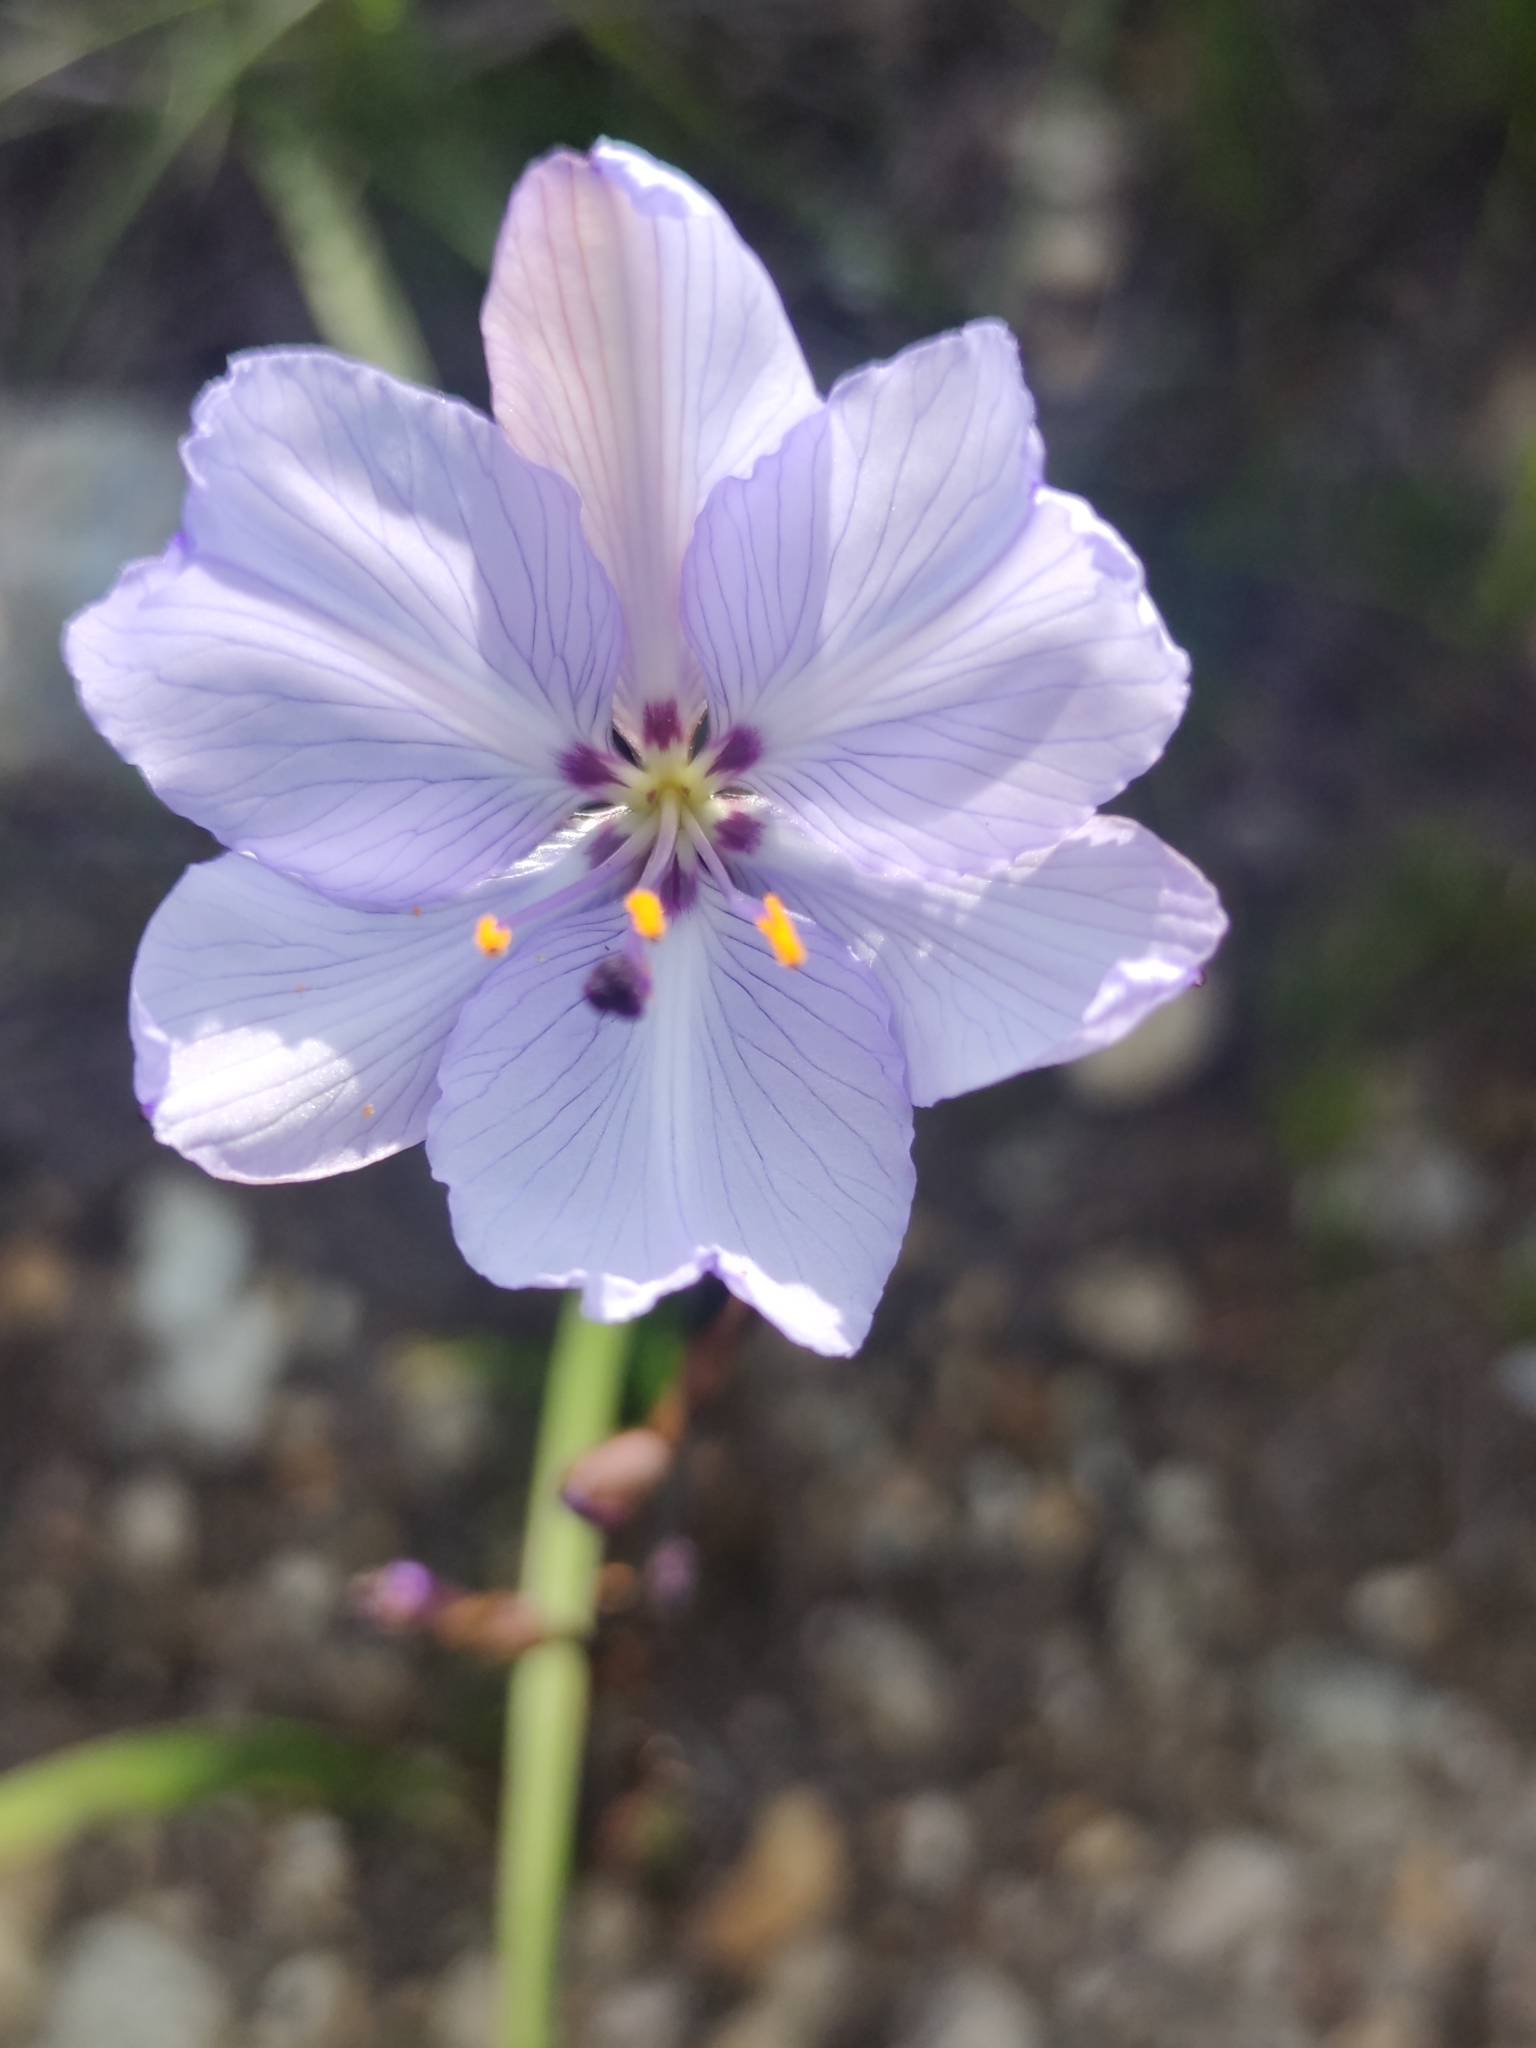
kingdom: Plantae
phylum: Tracheophyta
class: Liliopsida
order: Asparagales
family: Iridaceae
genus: Aristea
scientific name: Aristea spiralis
